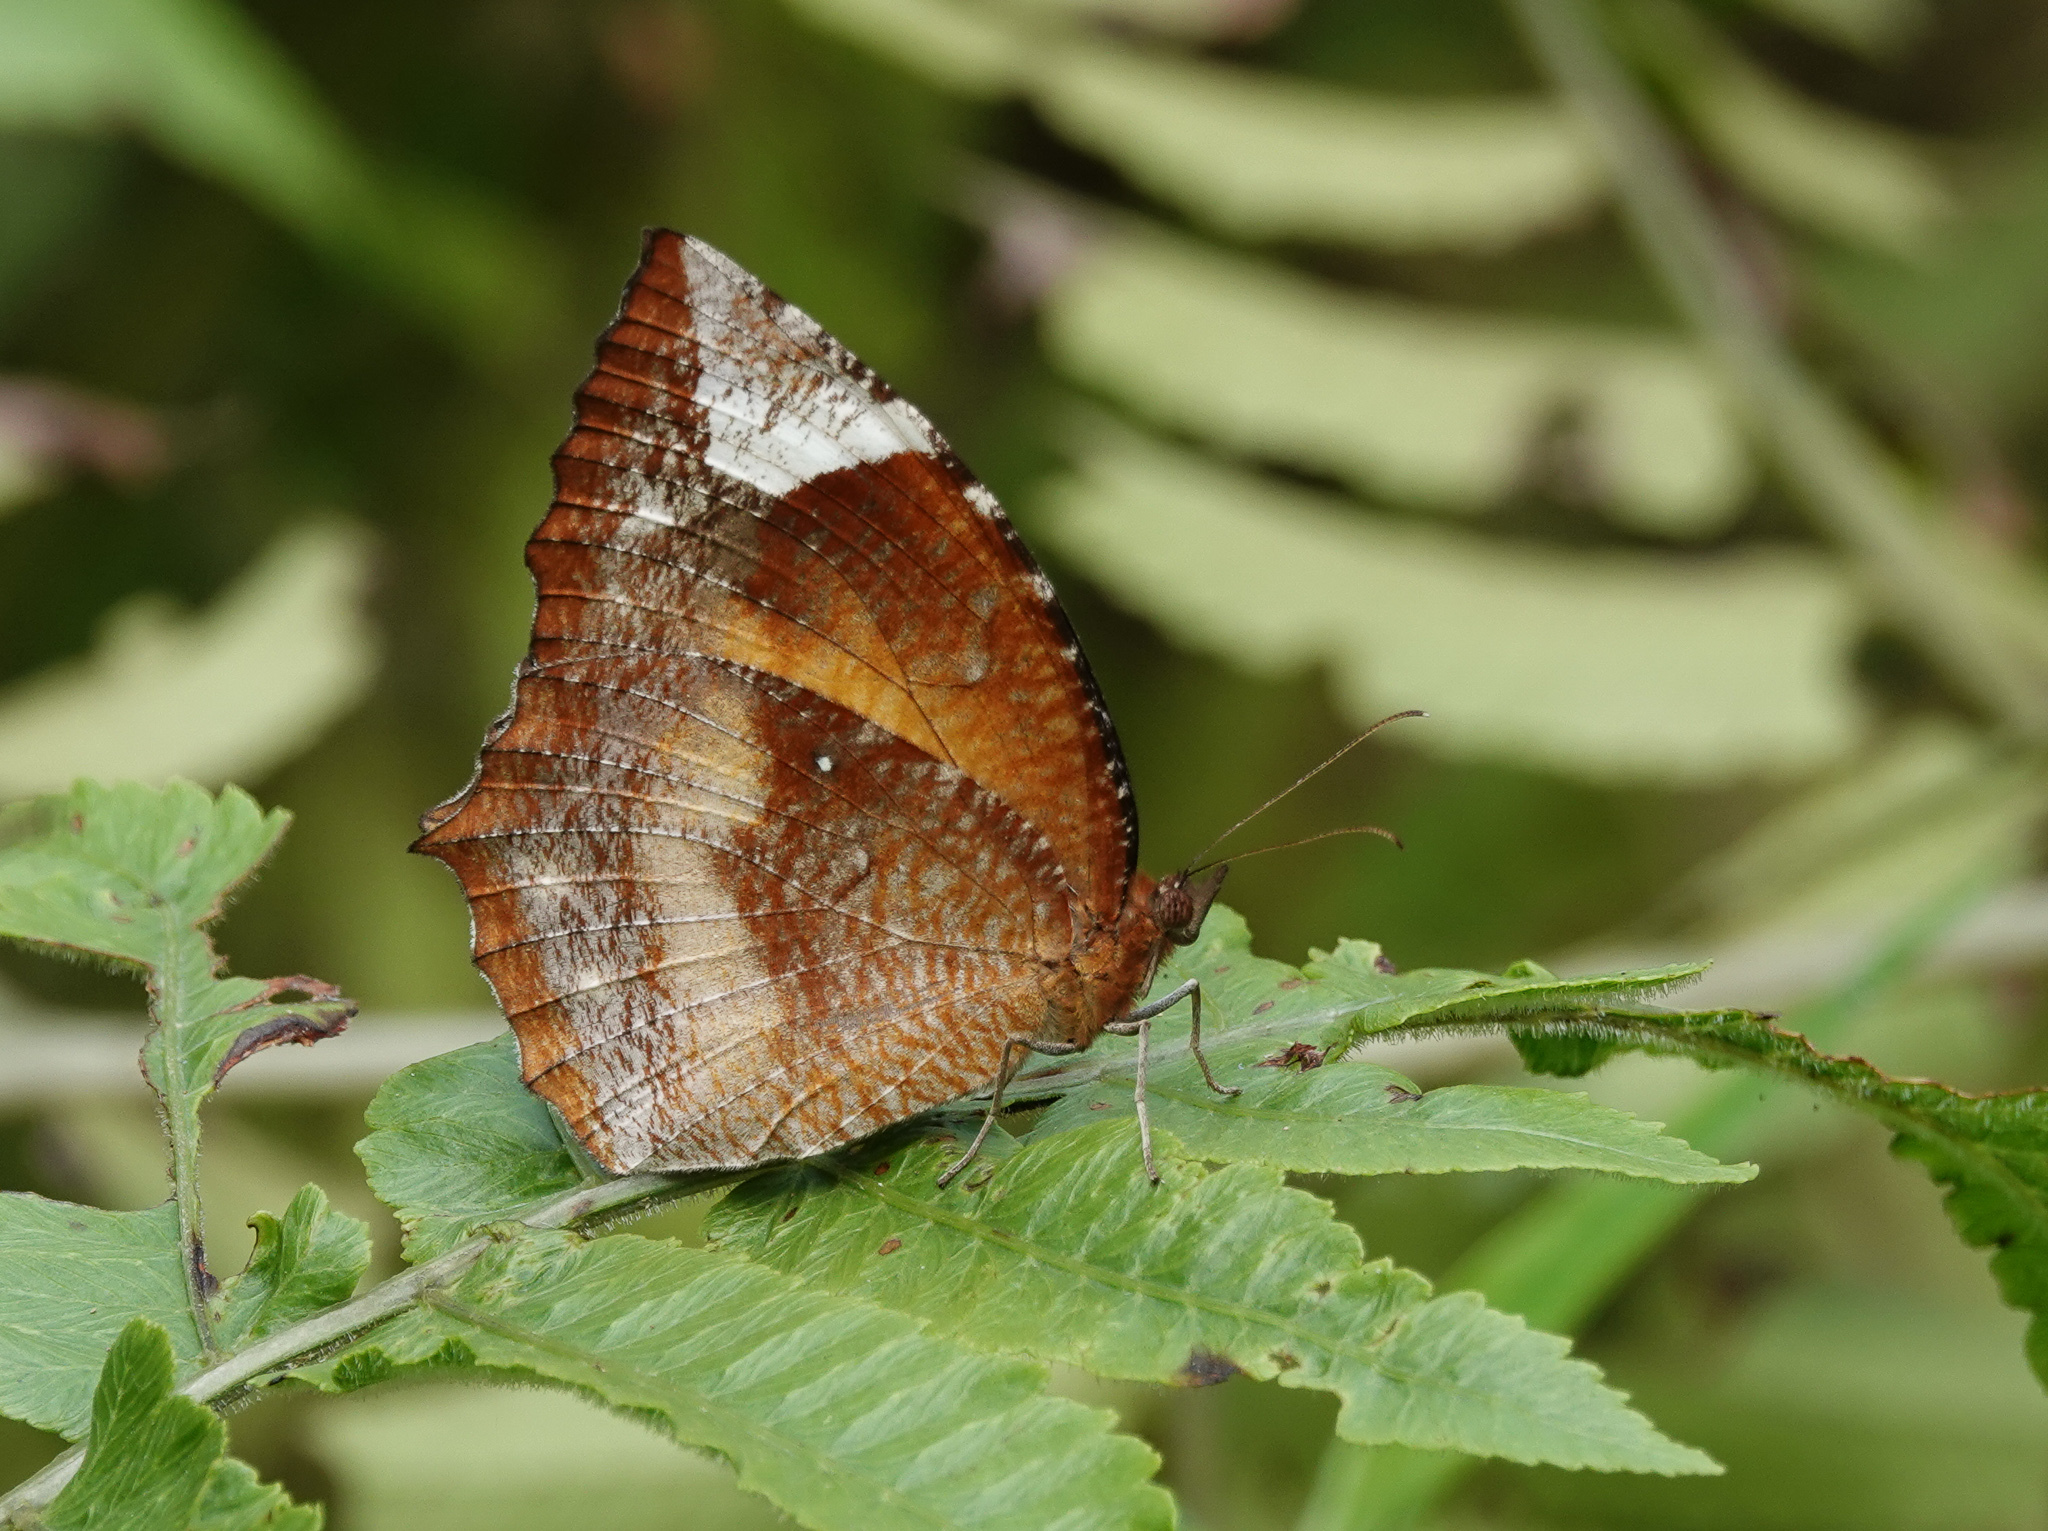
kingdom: Animalia
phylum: Arthropoda
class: Insecta
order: Lepidoptera
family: Nymphalidae
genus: Elymnias
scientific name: Elymnias hypermnestra
